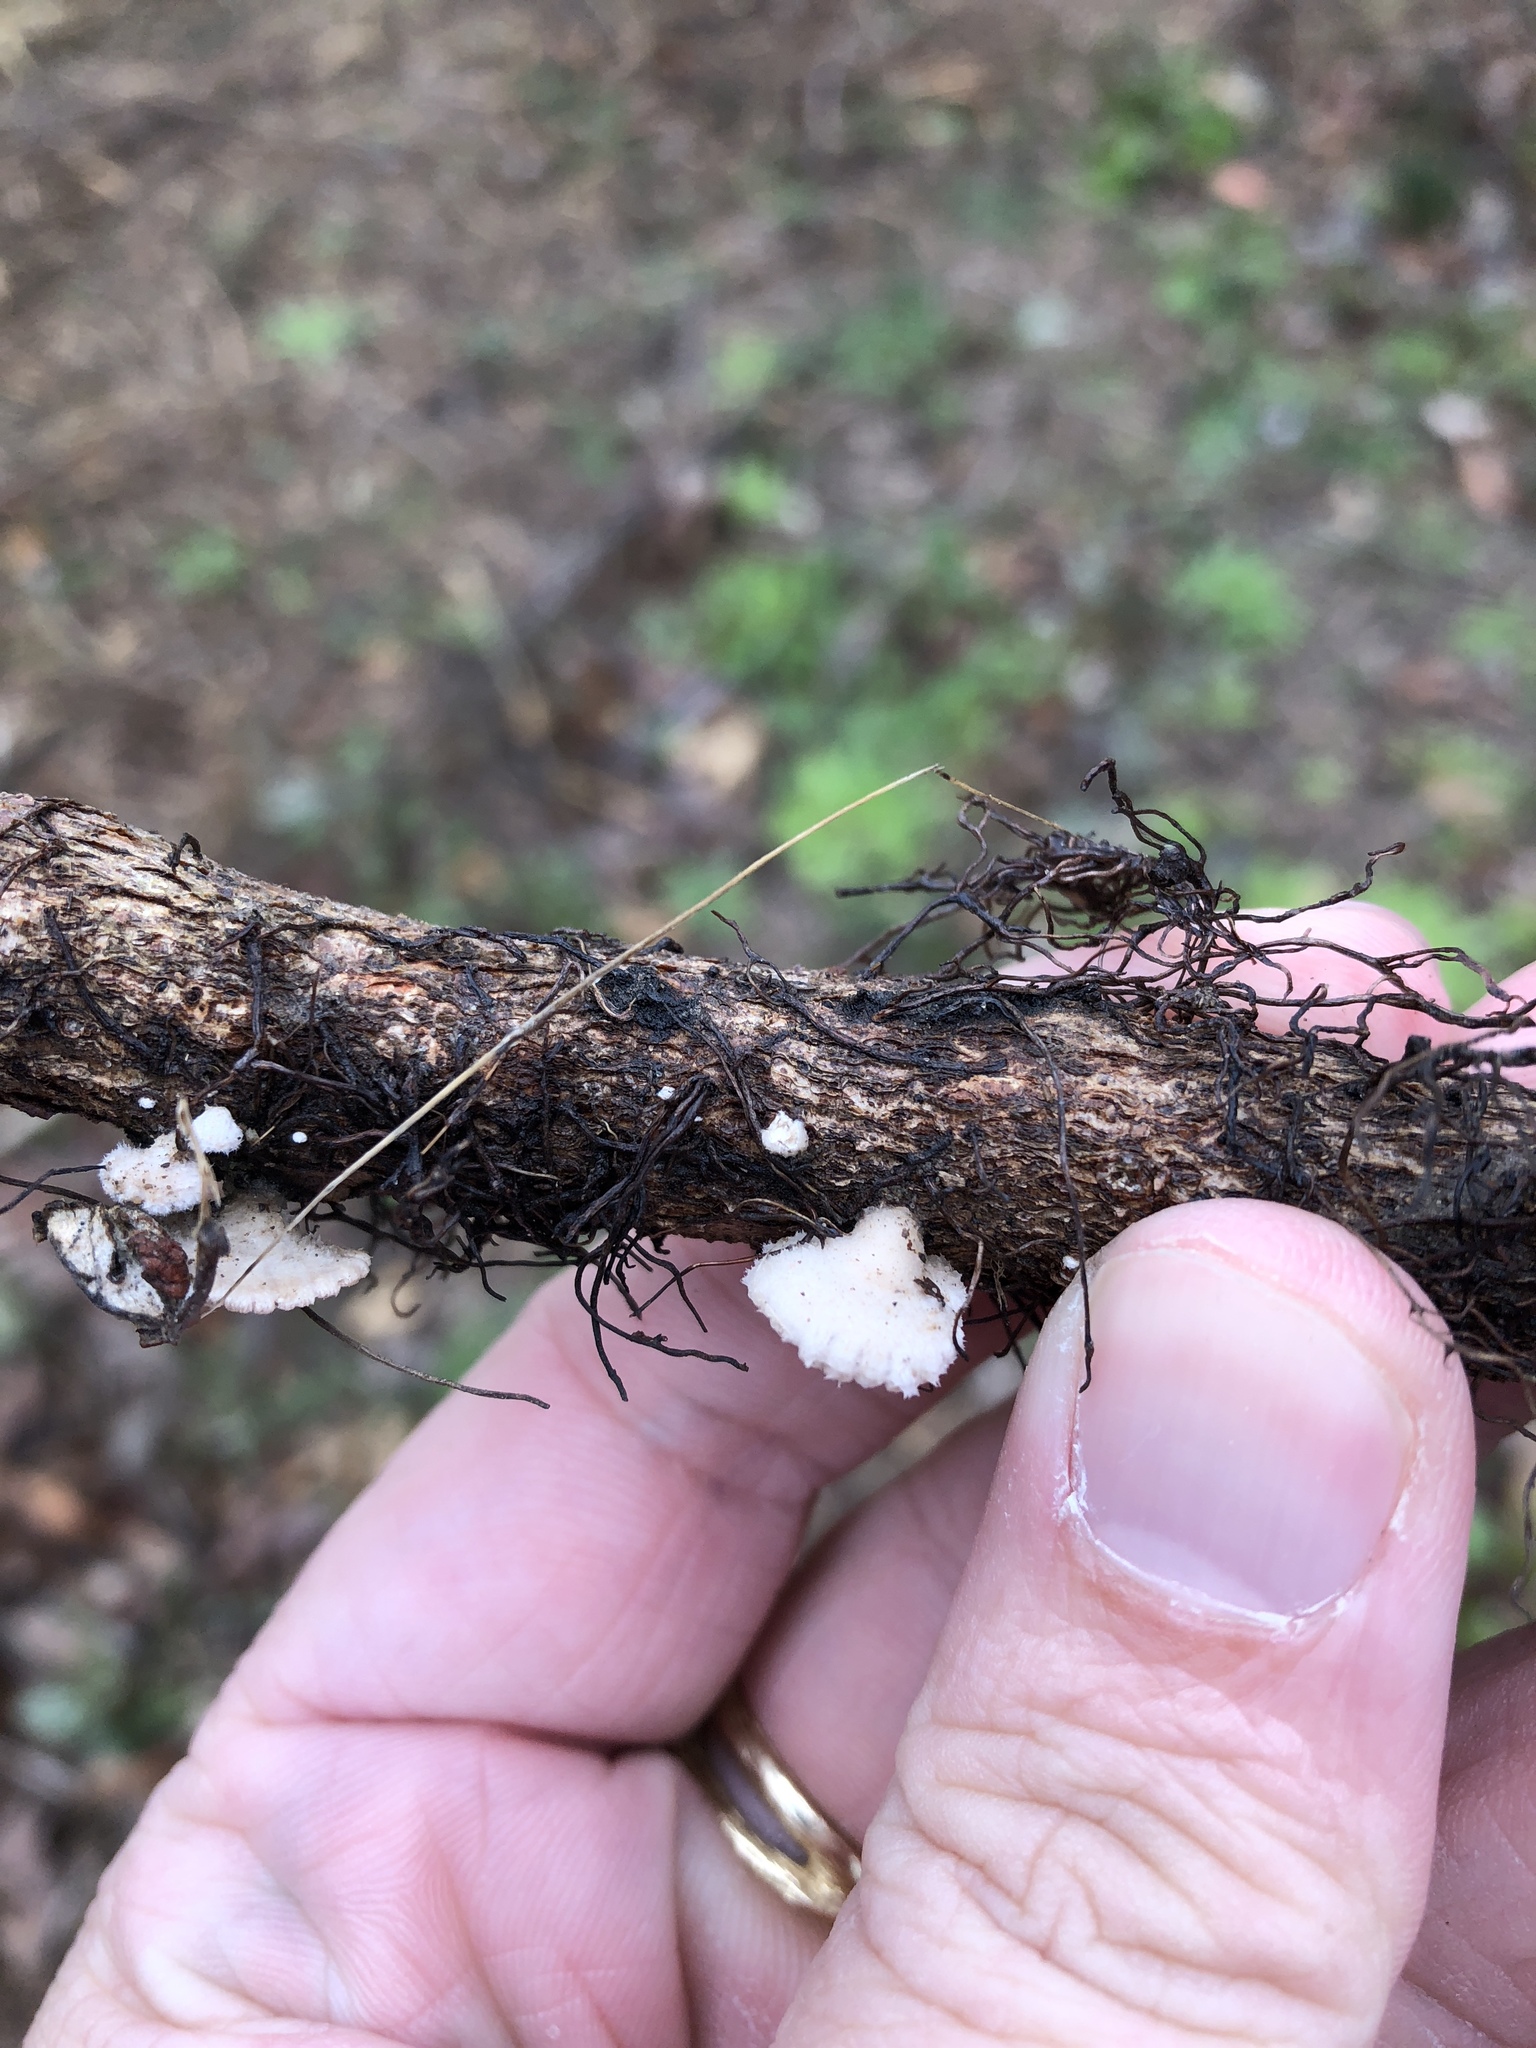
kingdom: Fungi
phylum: Basidiomycota
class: Agaricomycetes
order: Agaricales
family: Schizophyllaceae
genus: Schizophyllum
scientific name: Schizophyllum commune
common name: Common porecrust
